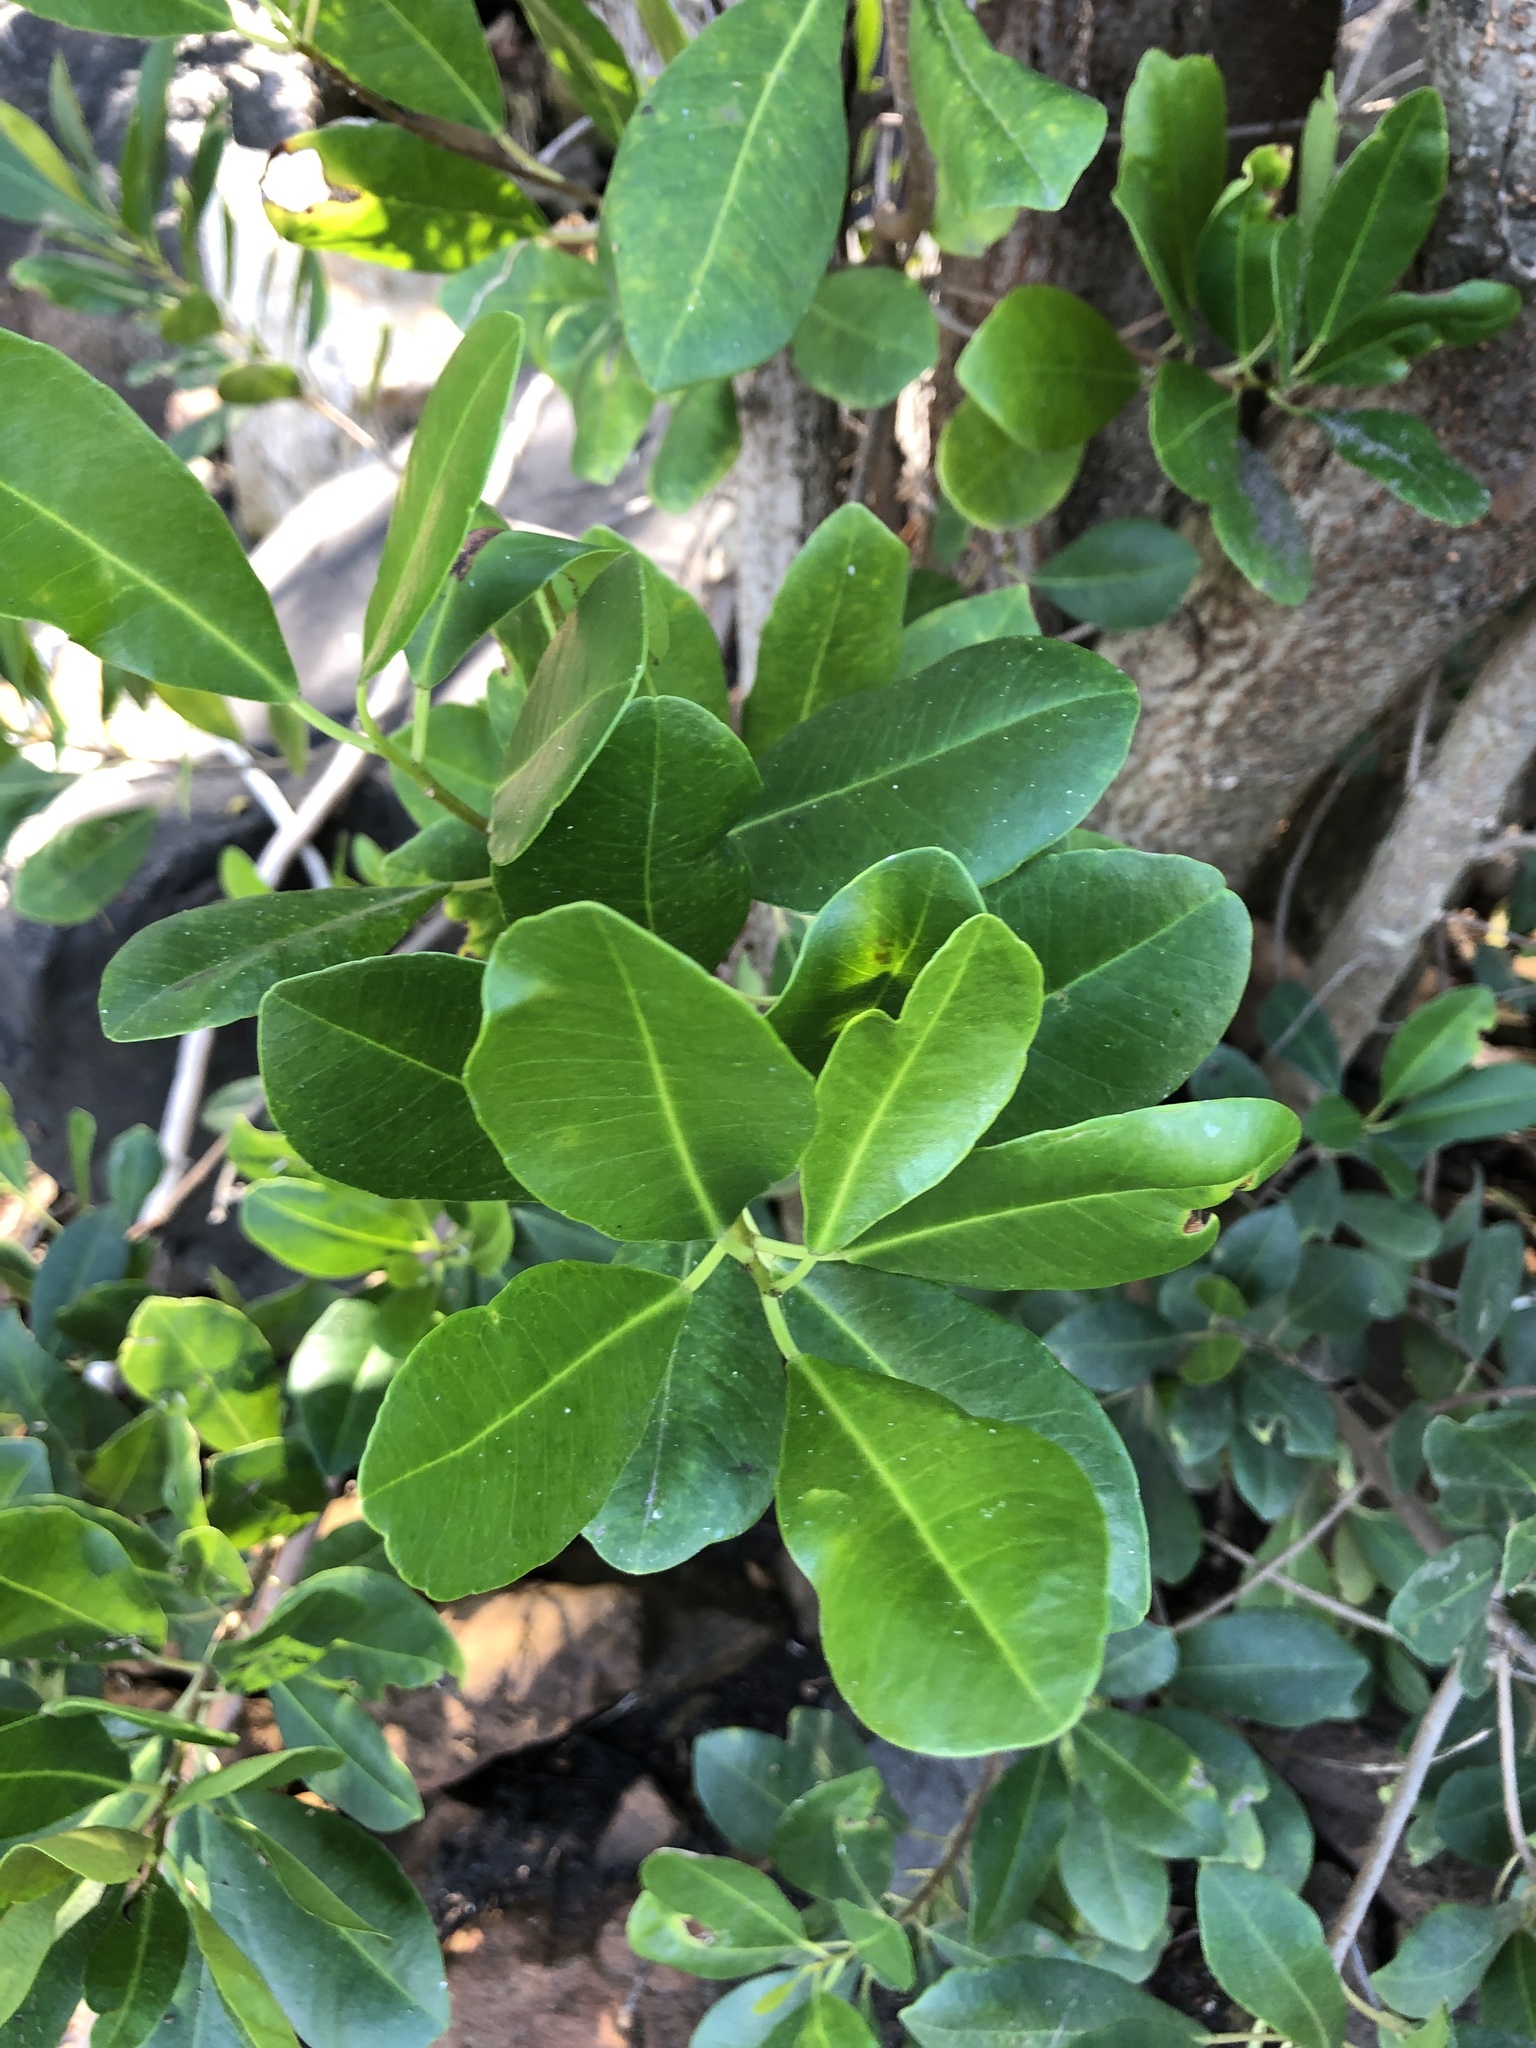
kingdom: Plantae
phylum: Tracheophyta
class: Magnoliopsida
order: Malpighiales
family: Euphorbiaceae
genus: Excoecaria
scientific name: Excoecaria agallocha
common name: River poisontree
